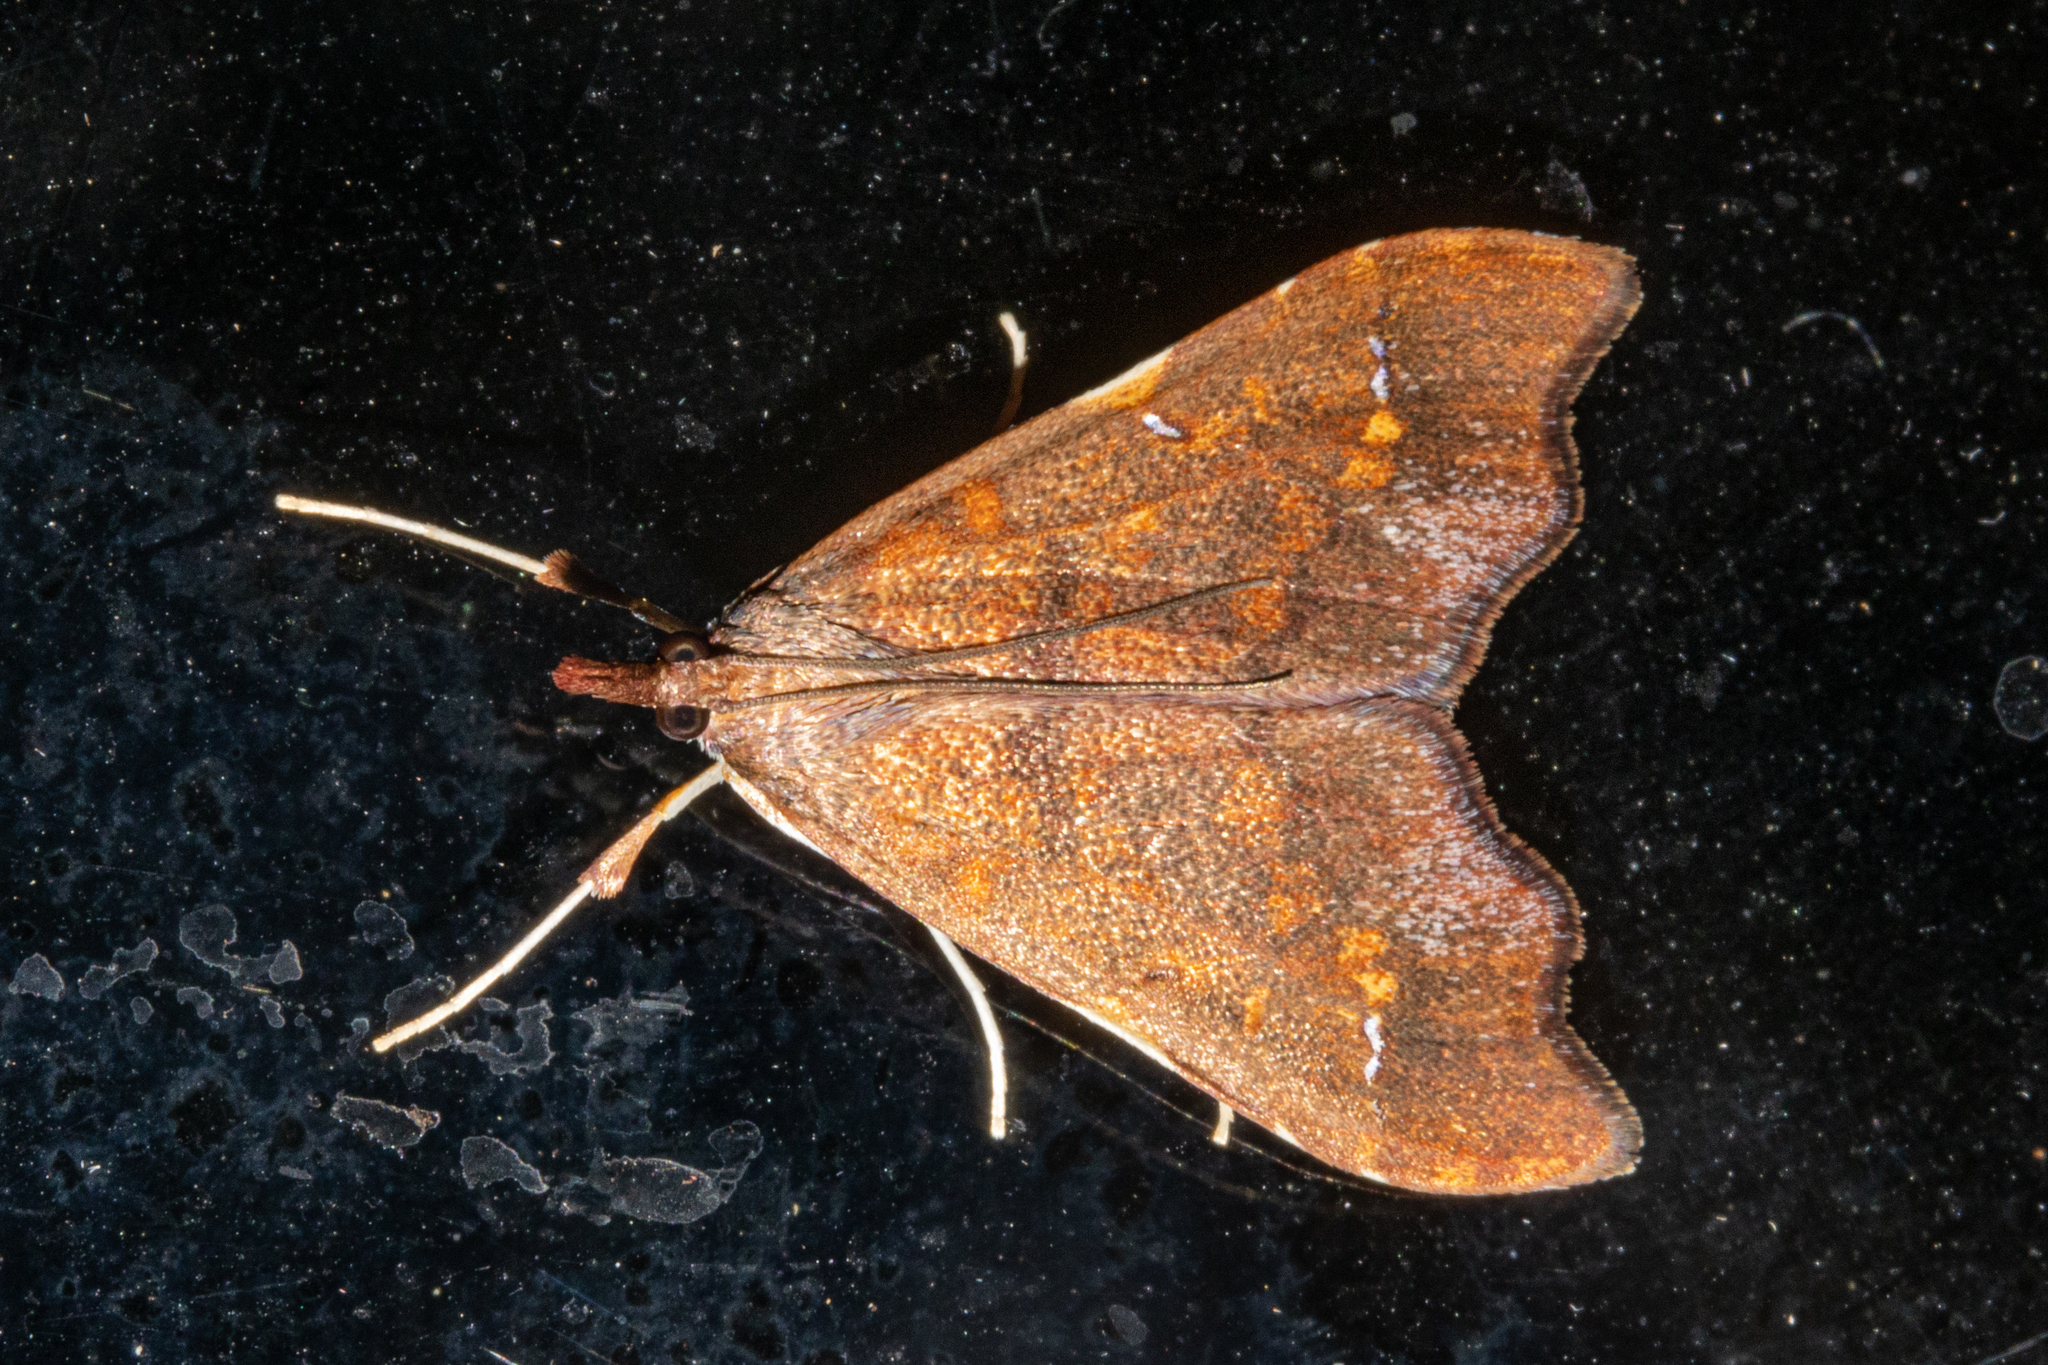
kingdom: Animalia
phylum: Arthropoda
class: Insecta
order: Lepidoptera
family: Crambidae
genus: Deana
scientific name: Deana hybreasalis
